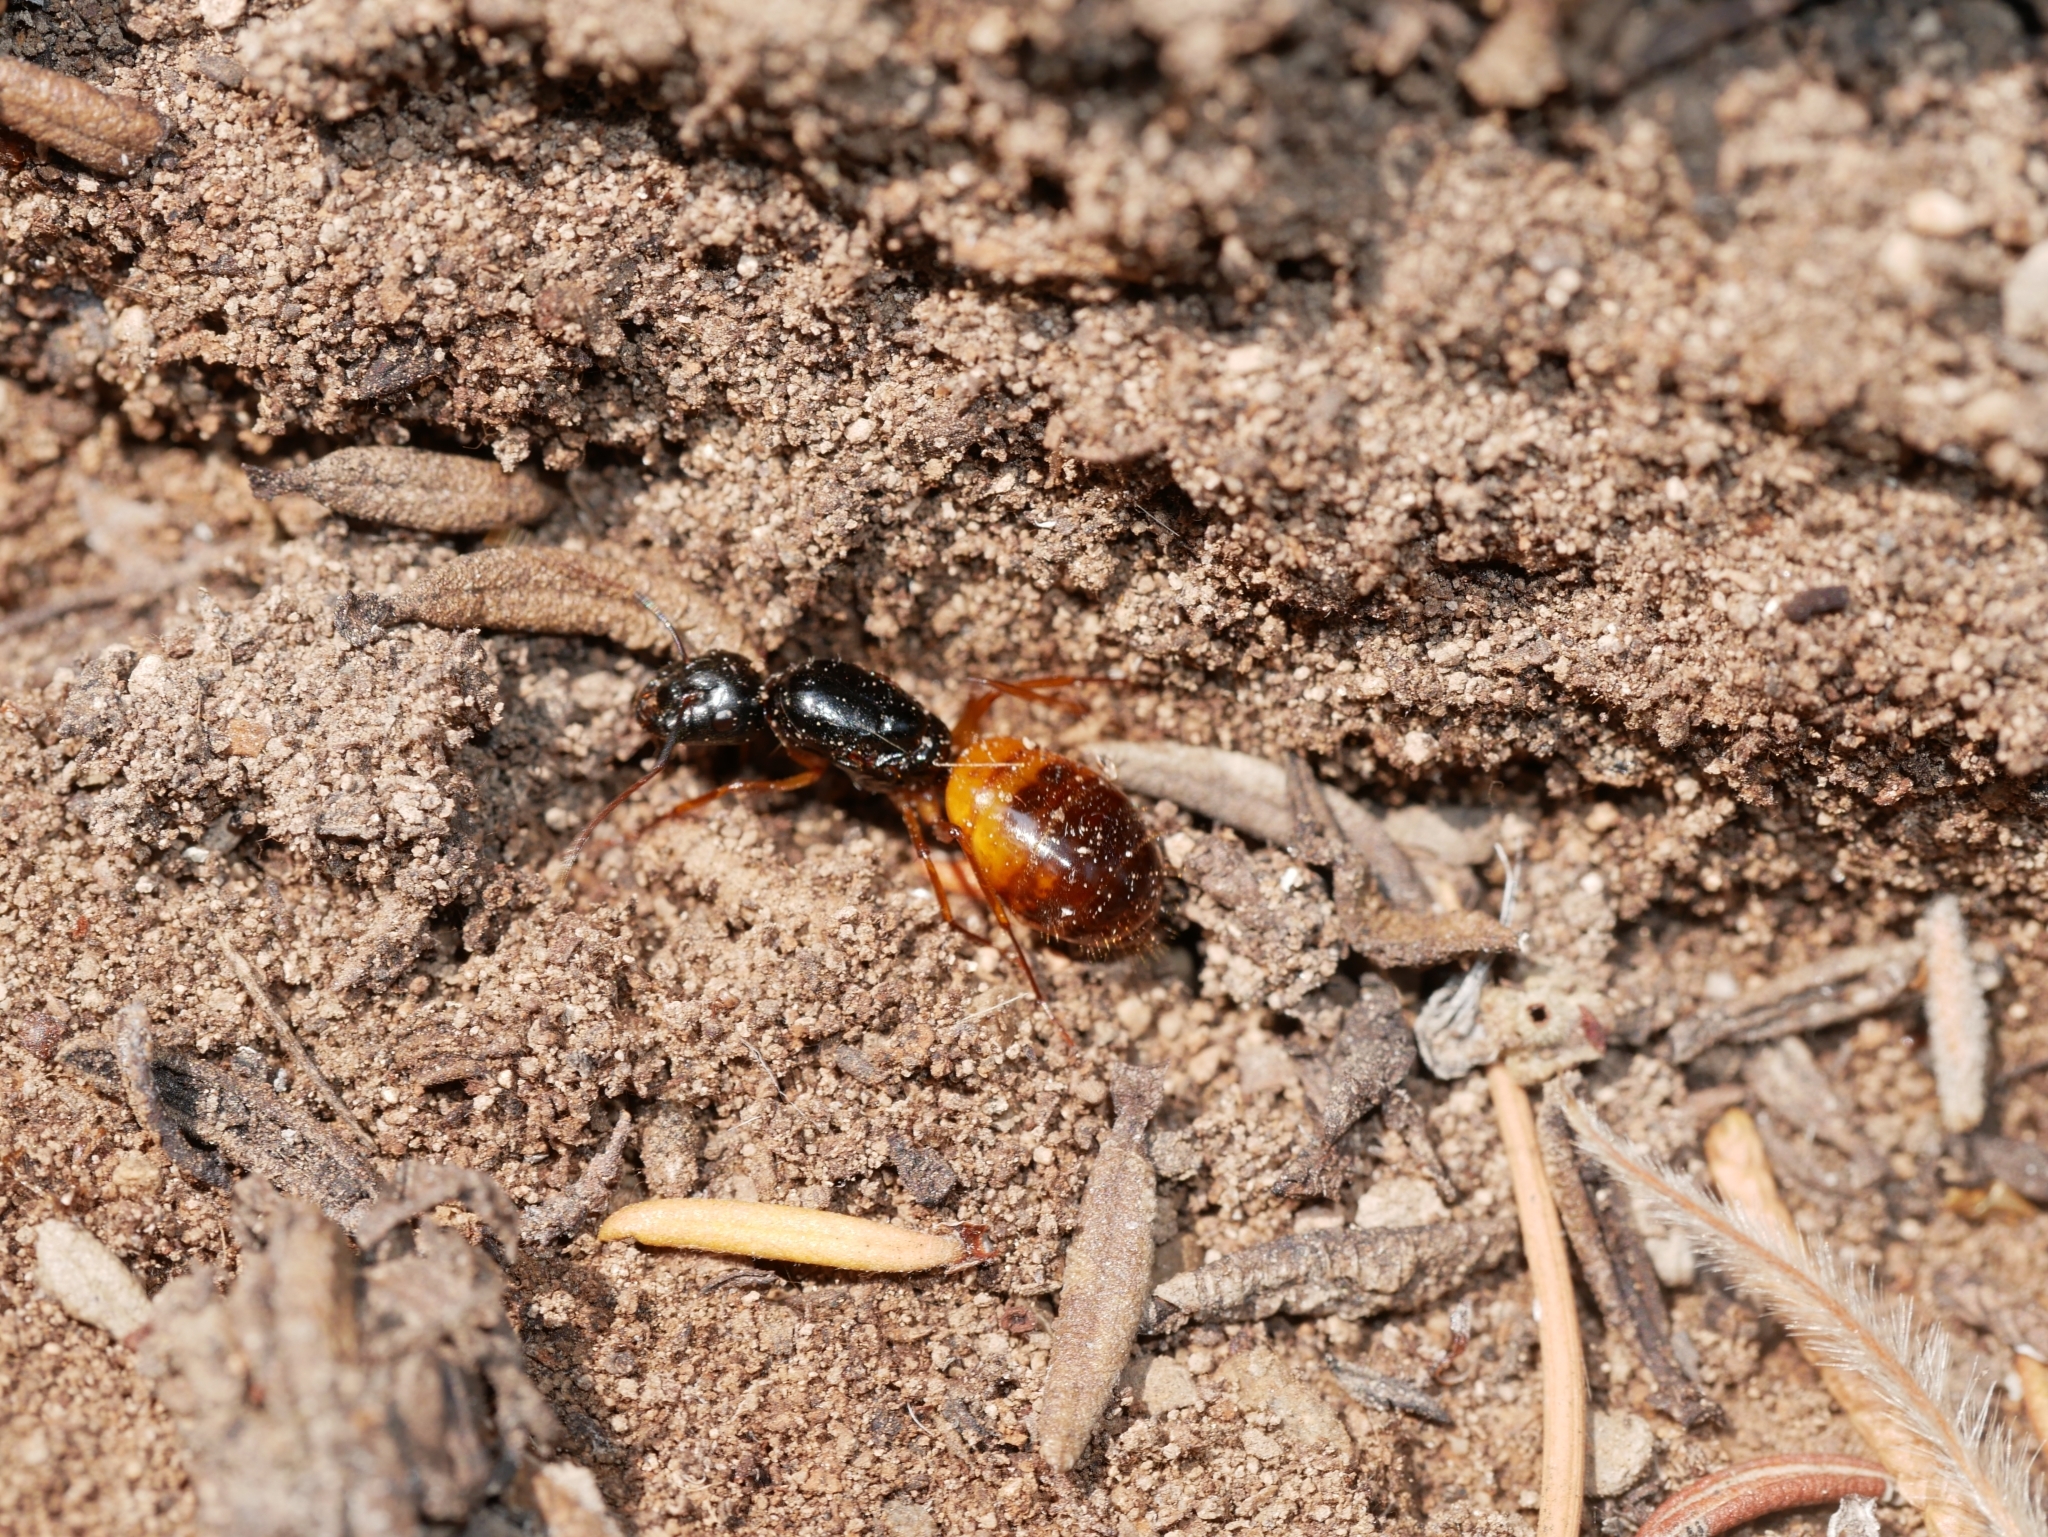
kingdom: Animalia
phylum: Arthropoda
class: Insecta
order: Hymenoptera
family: Formicidae
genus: Camponotus
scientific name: Camponotus sansabeanus
